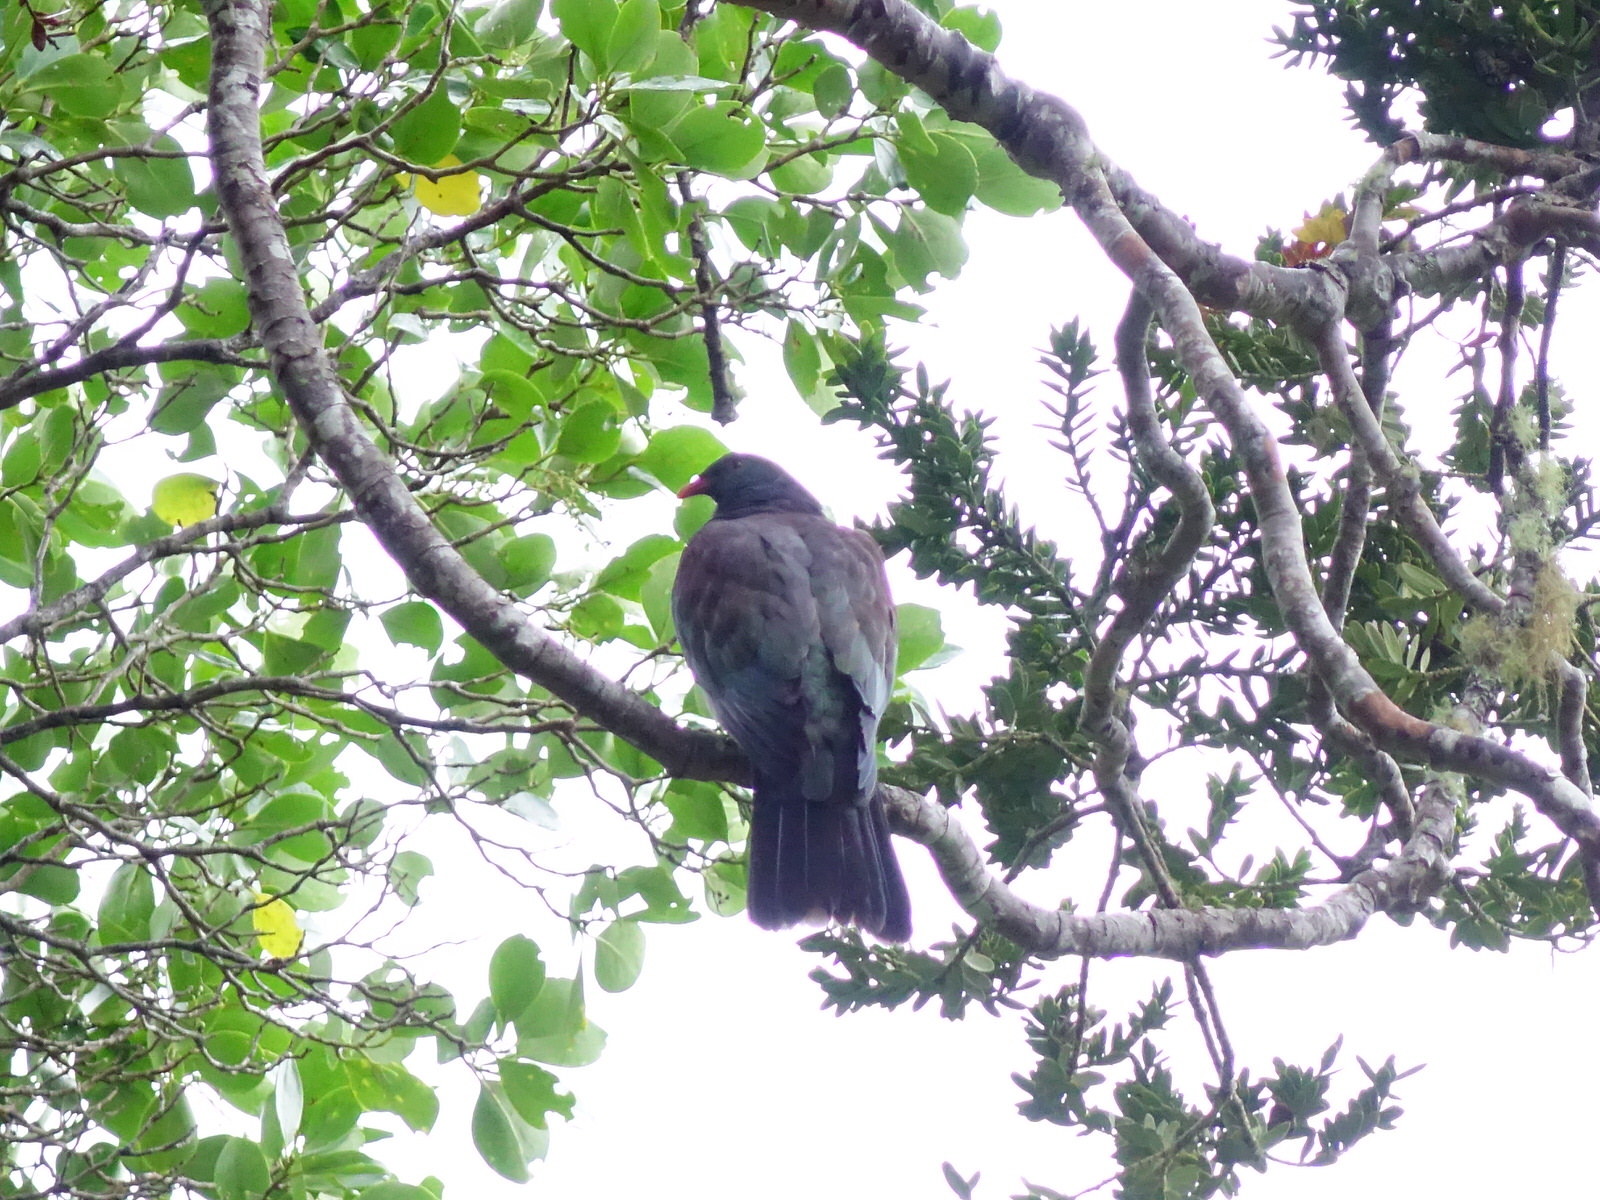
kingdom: Animalia
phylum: Chordata
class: Aves
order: Columbiformes
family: Columbidae
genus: Hemiphaga
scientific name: Hemiphaga novaeseelandiae
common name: New zealand pigeon
